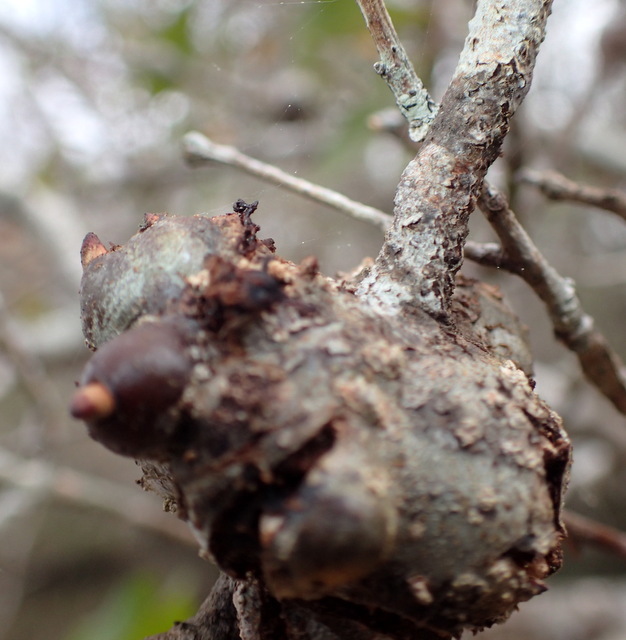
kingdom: Animalia
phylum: Arthropoda
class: Insecta
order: Hymenoptera
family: Cynipidae
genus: Callirhytis
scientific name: Callirhytis
